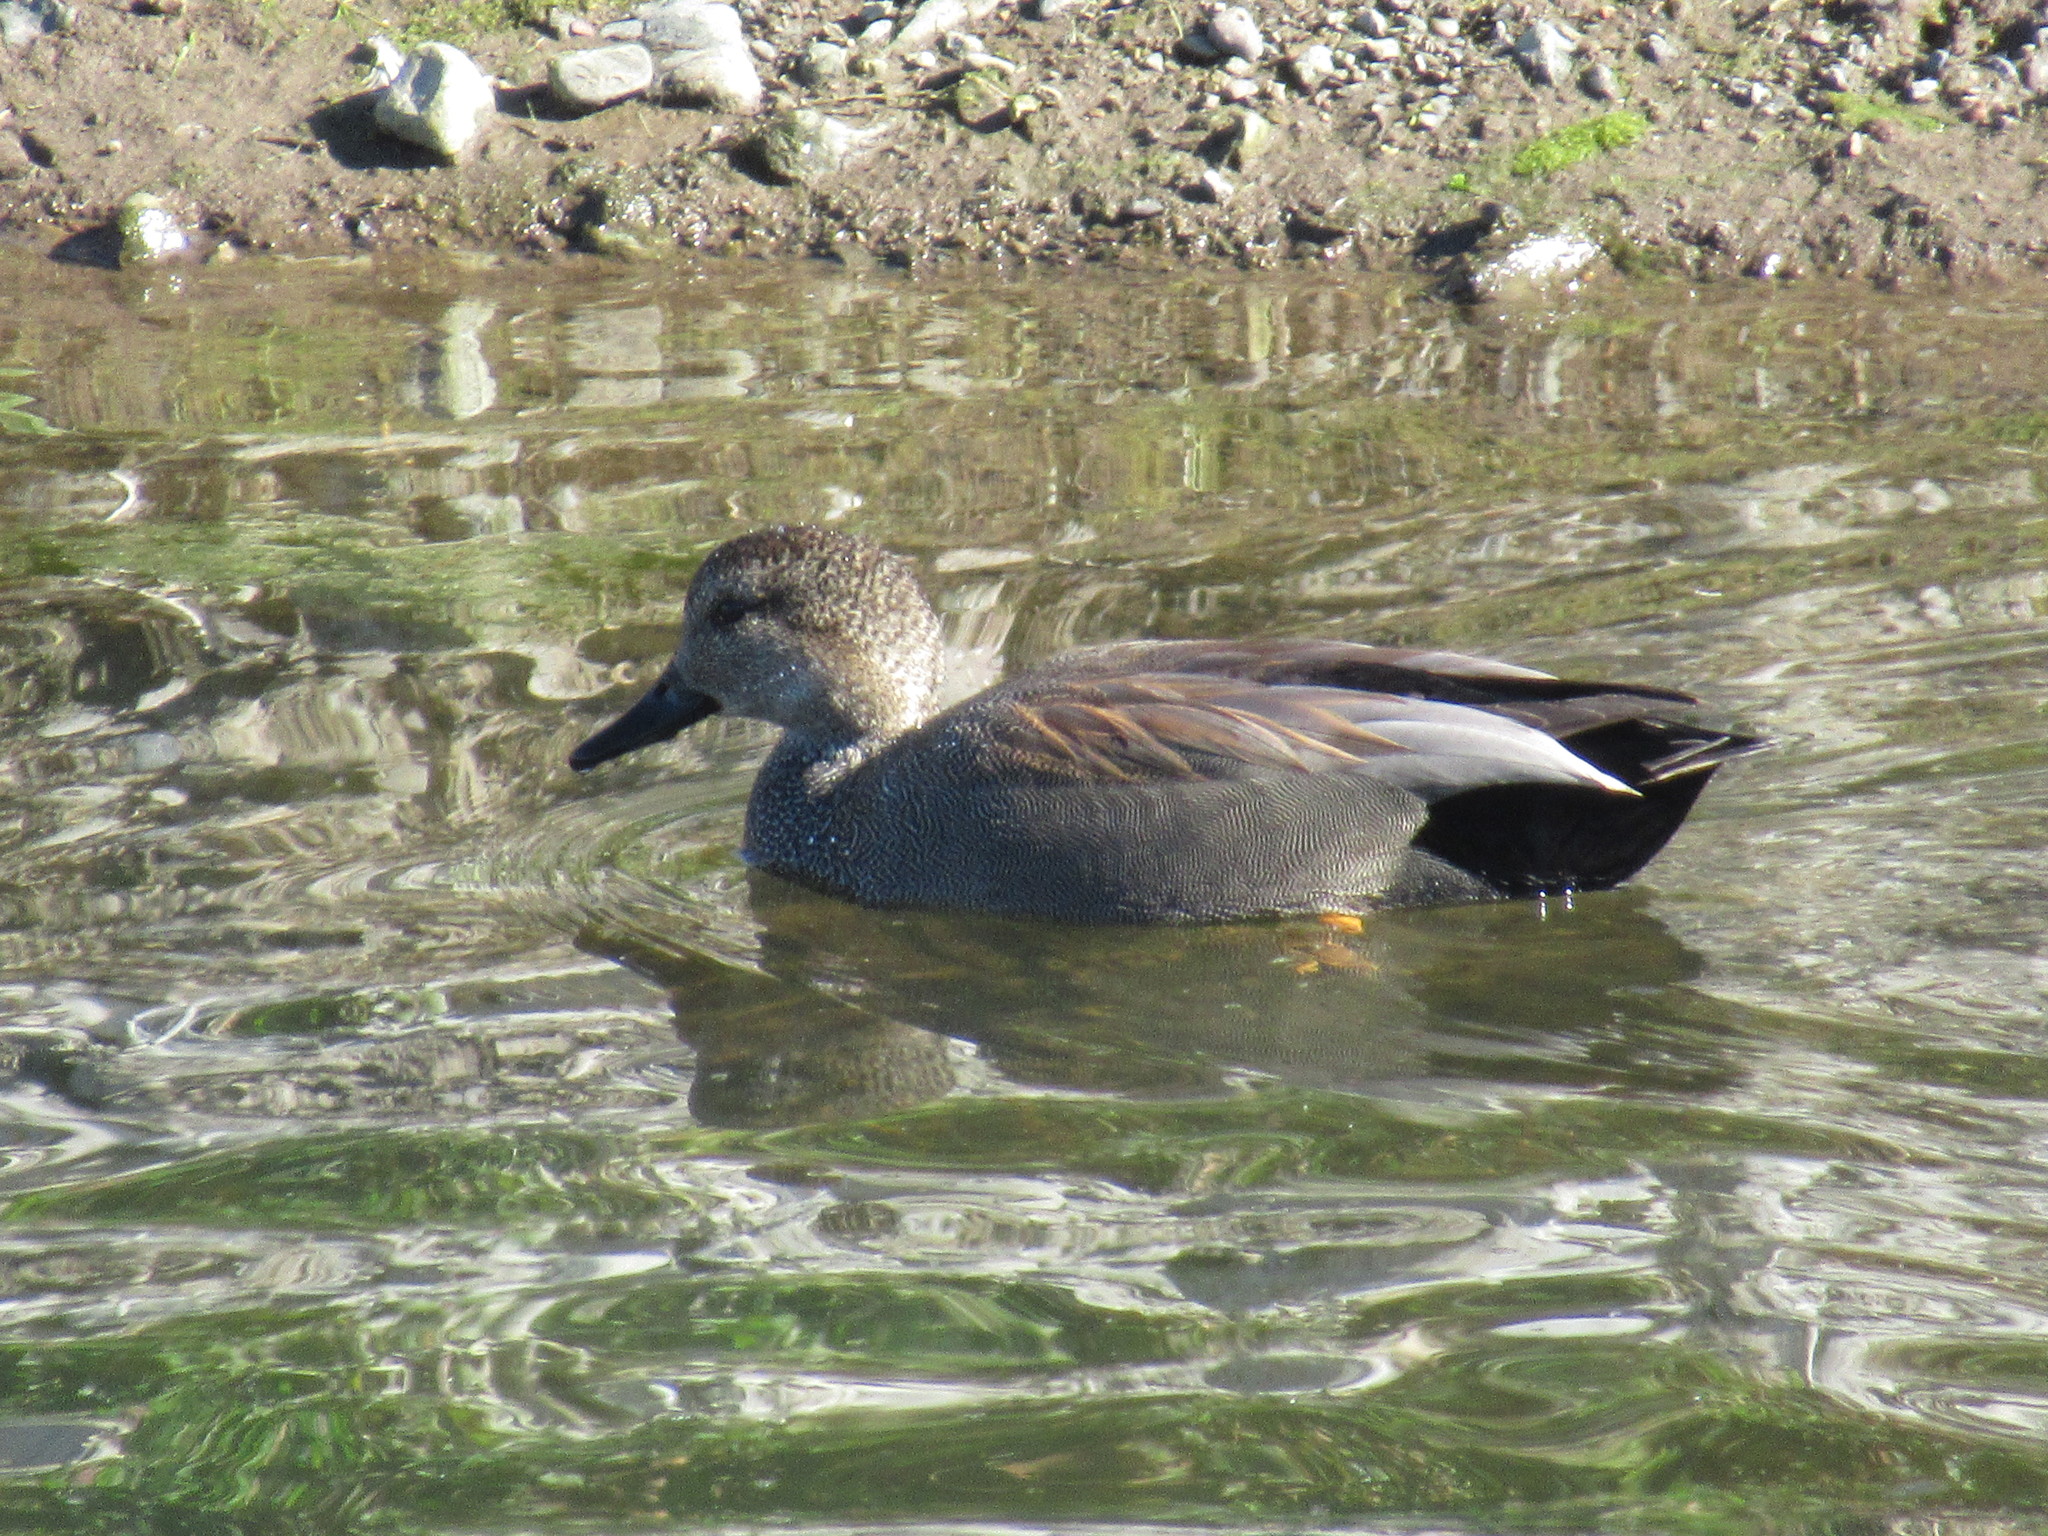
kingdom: Animalia
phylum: Chordata
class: Aves
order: Anseriformes
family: Anatidae
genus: Mareca
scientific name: Mareca strepera
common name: Gadwall
